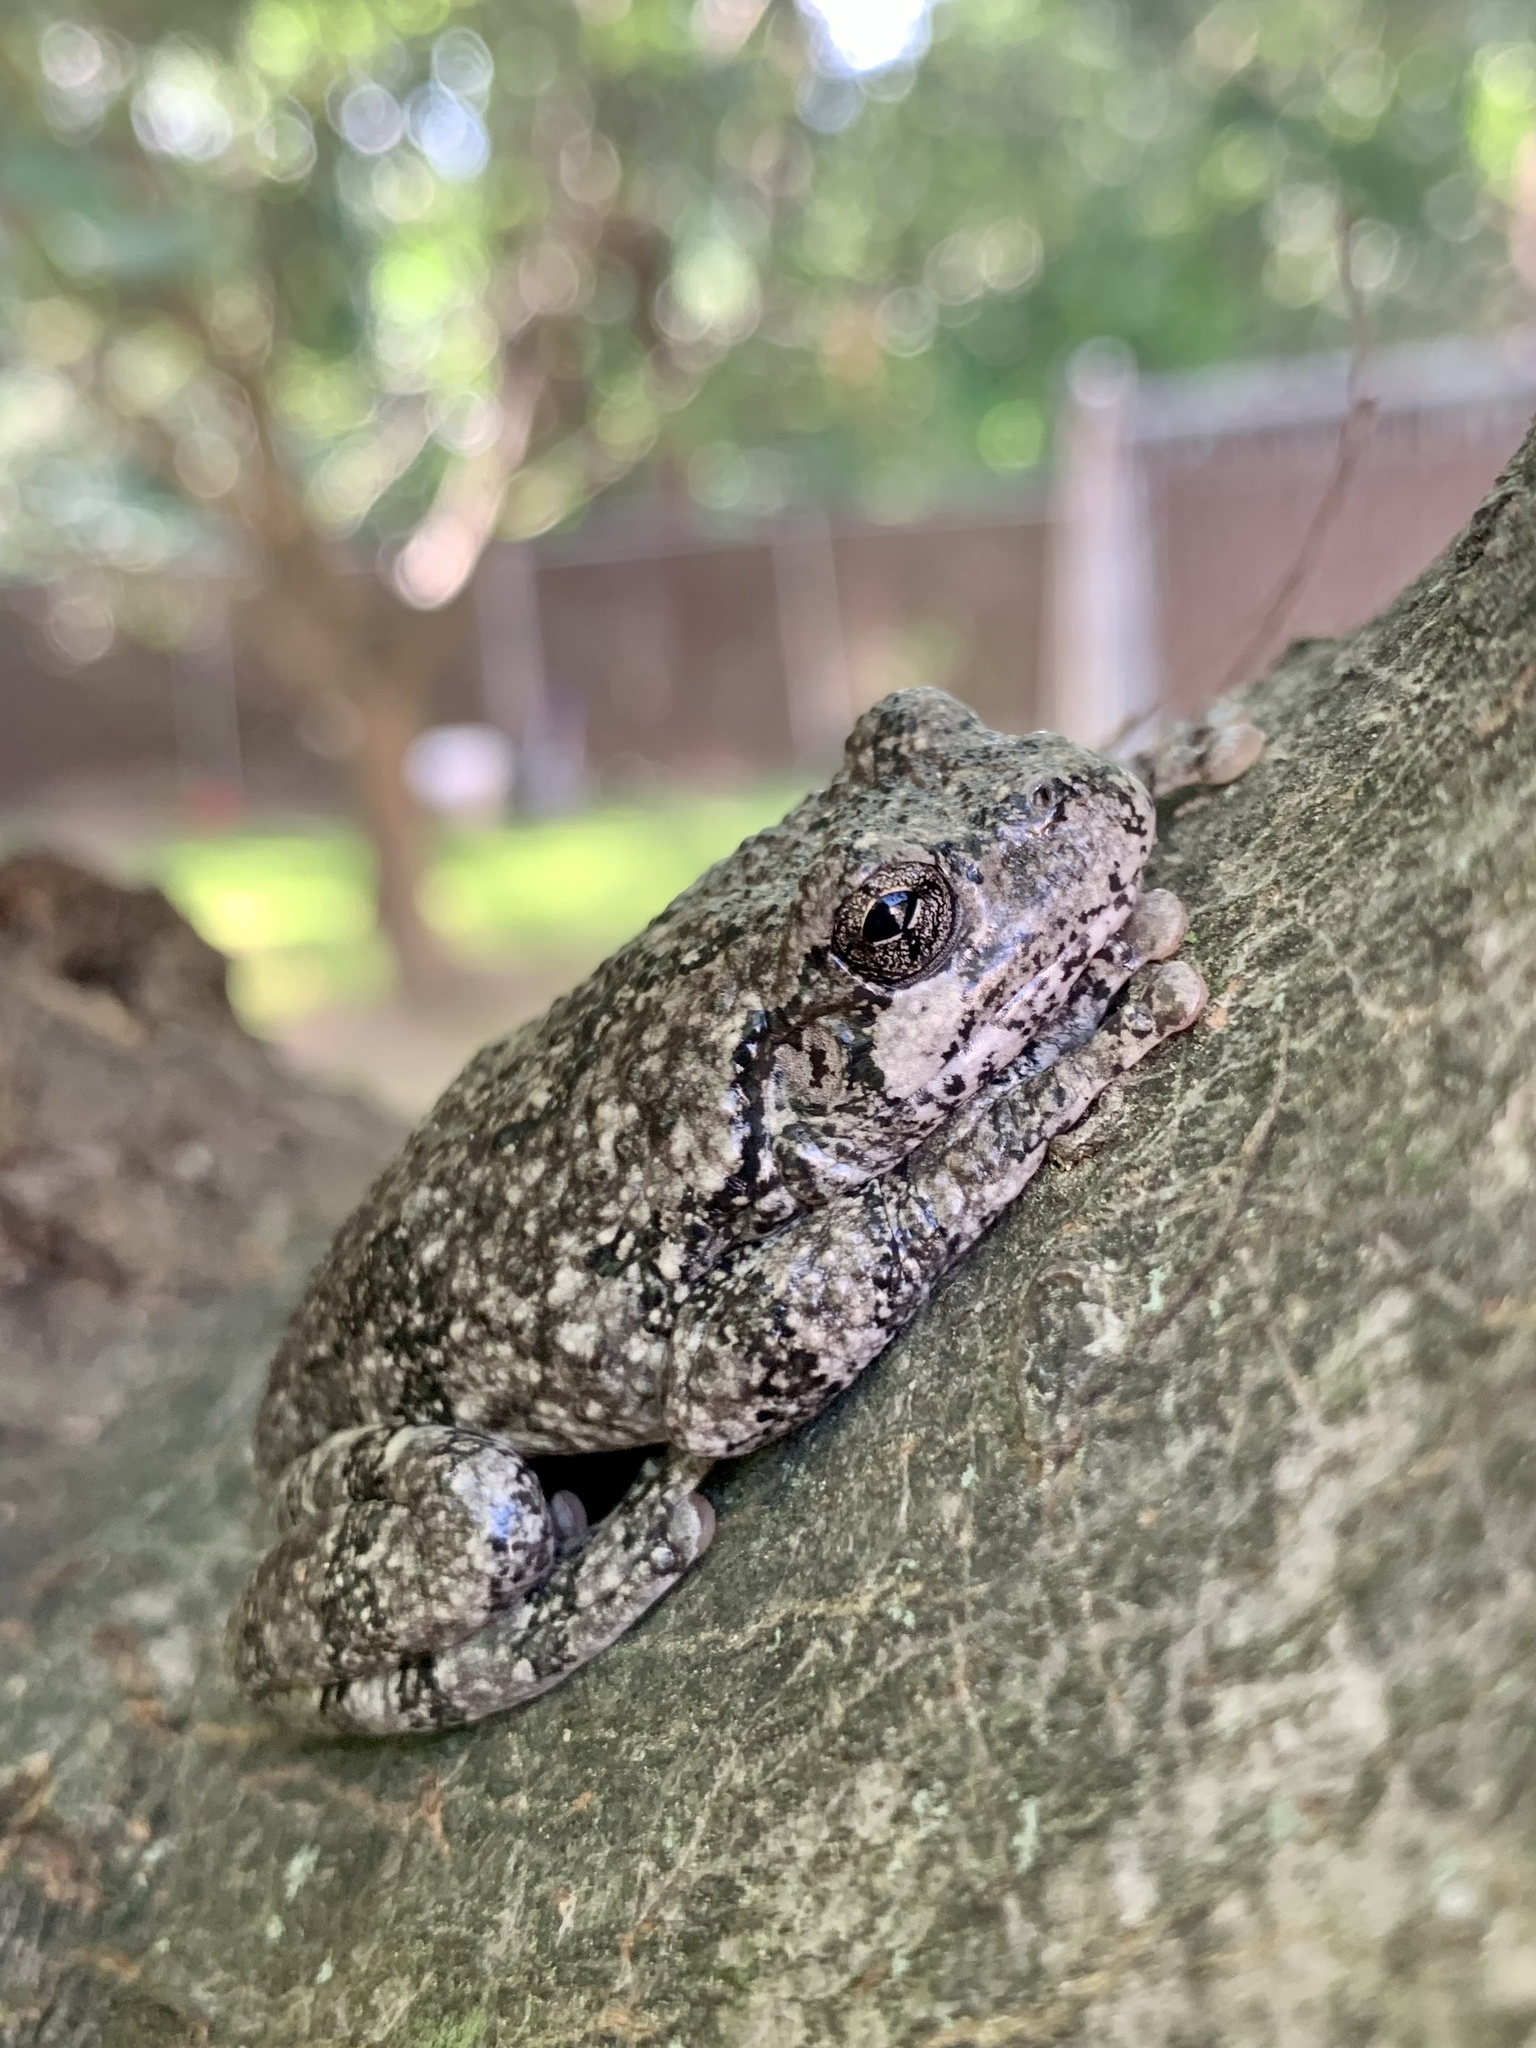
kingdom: Animalia
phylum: Chordata
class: Amphibia
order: Anura
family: Hylidae
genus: Dryophytes
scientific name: Dryophytes versicolor
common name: Gray treefrog
